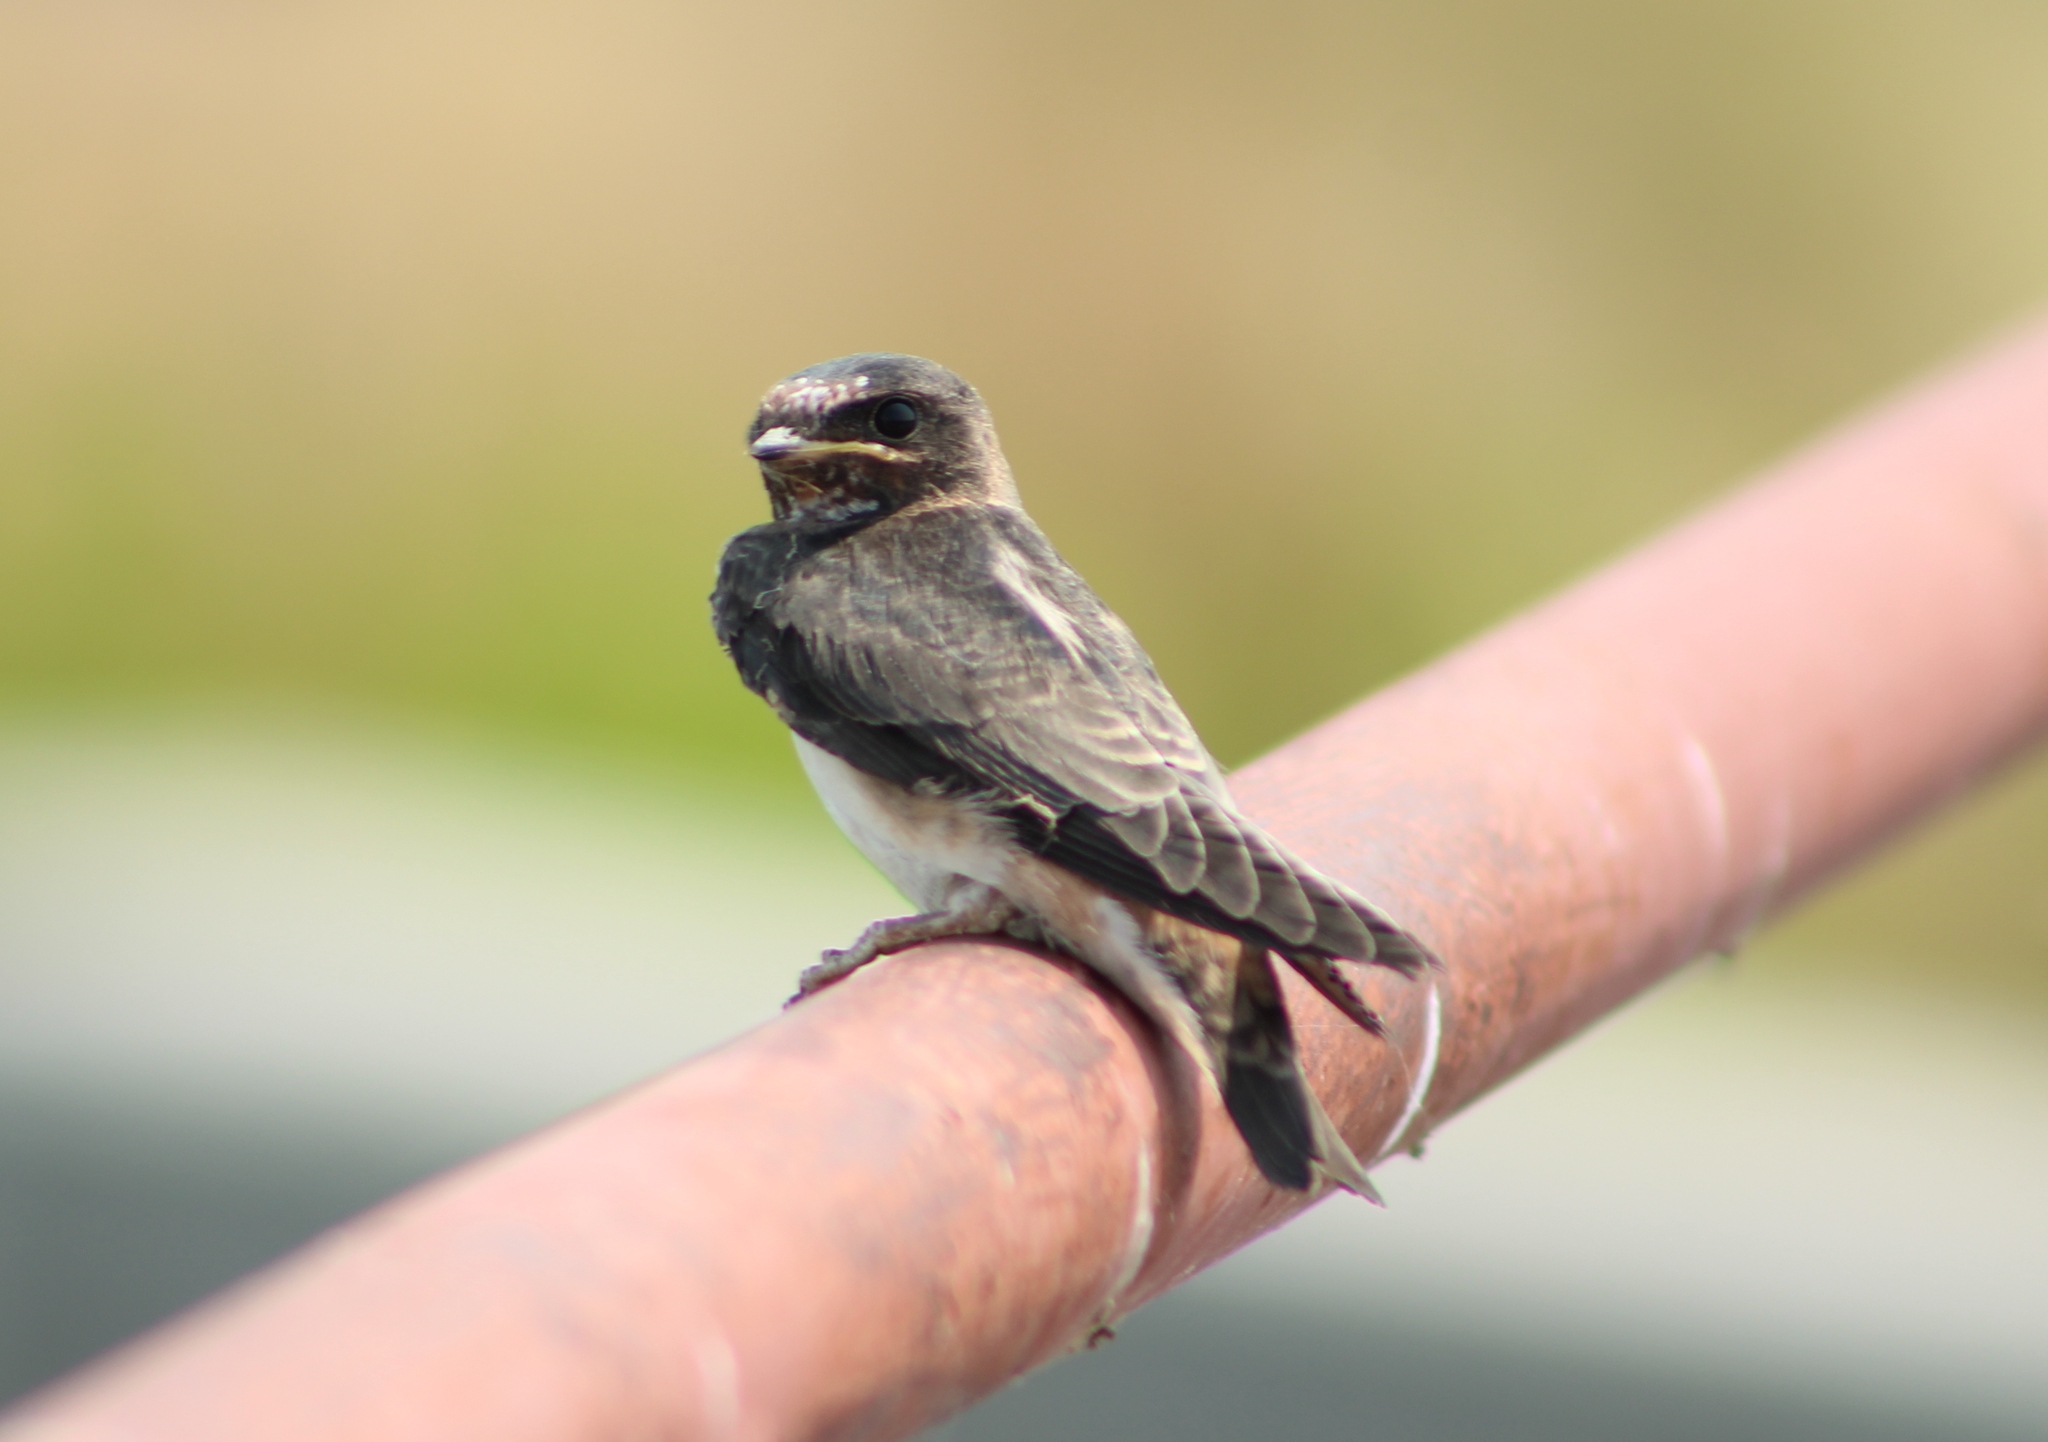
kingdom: Animalia
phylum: Chordata
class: Aves
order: Passeriformes
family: Hirundinidae
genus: Petrochelidon
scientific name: Petrochelidon pyrrhonota
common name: American cliff swallow
